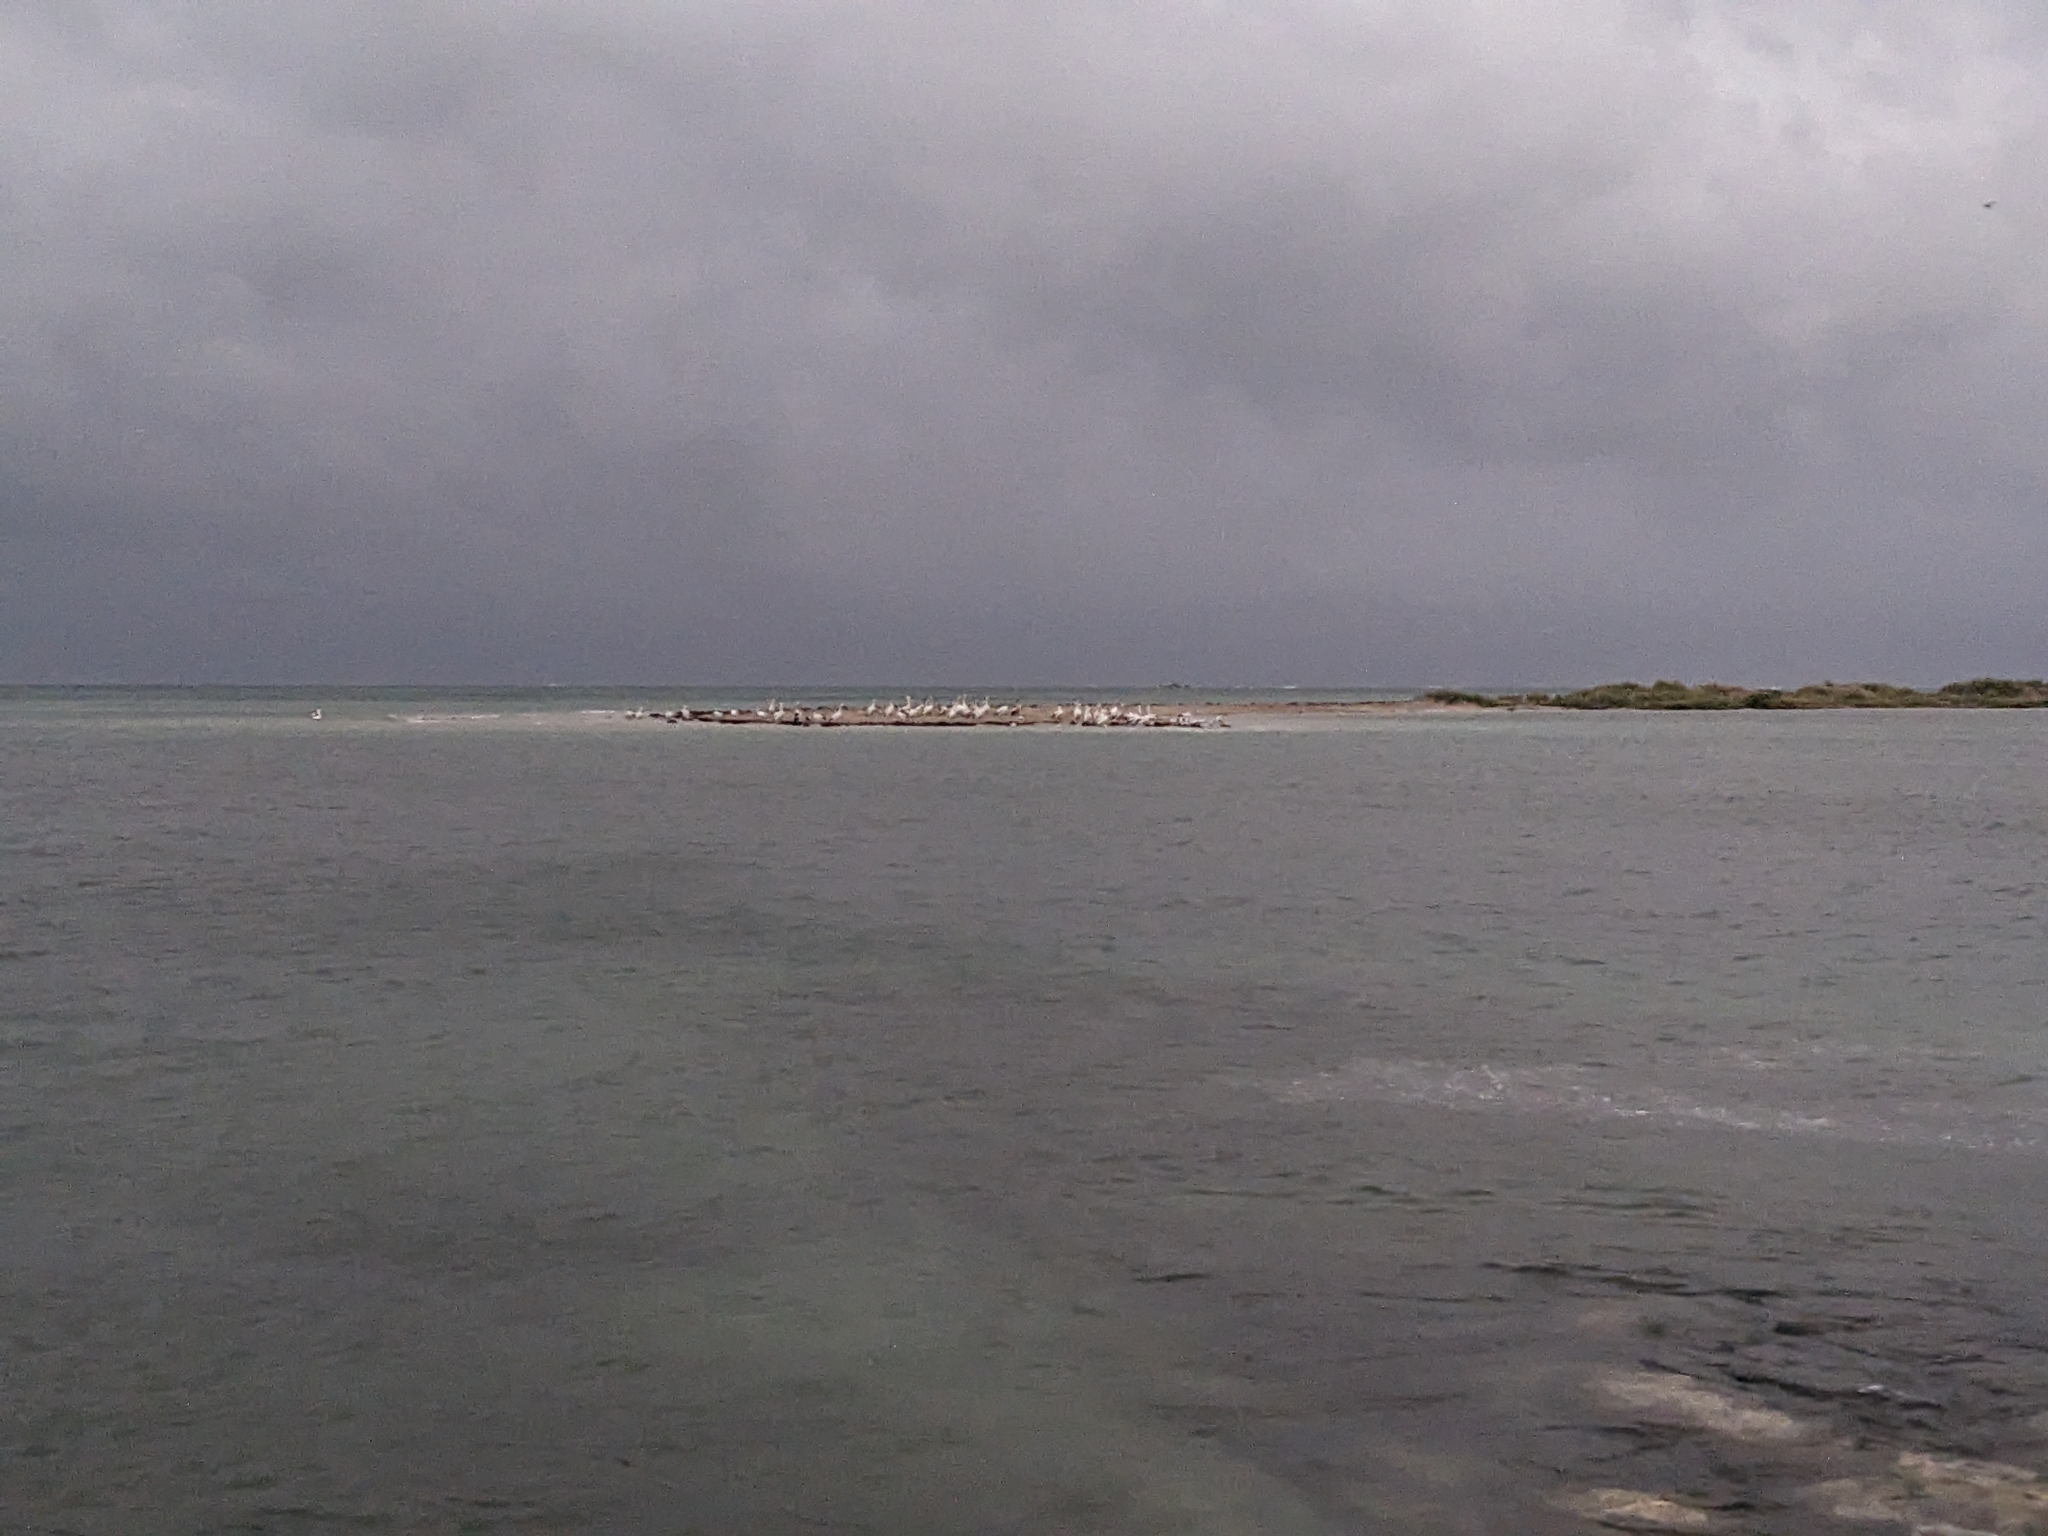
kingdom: Animalia
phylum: Chordata
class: Aves
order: Pelecaniformes
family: Pelecanidae
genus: Pelecanus
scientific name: Pelecanus conspicillatus
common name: Australian pelican
